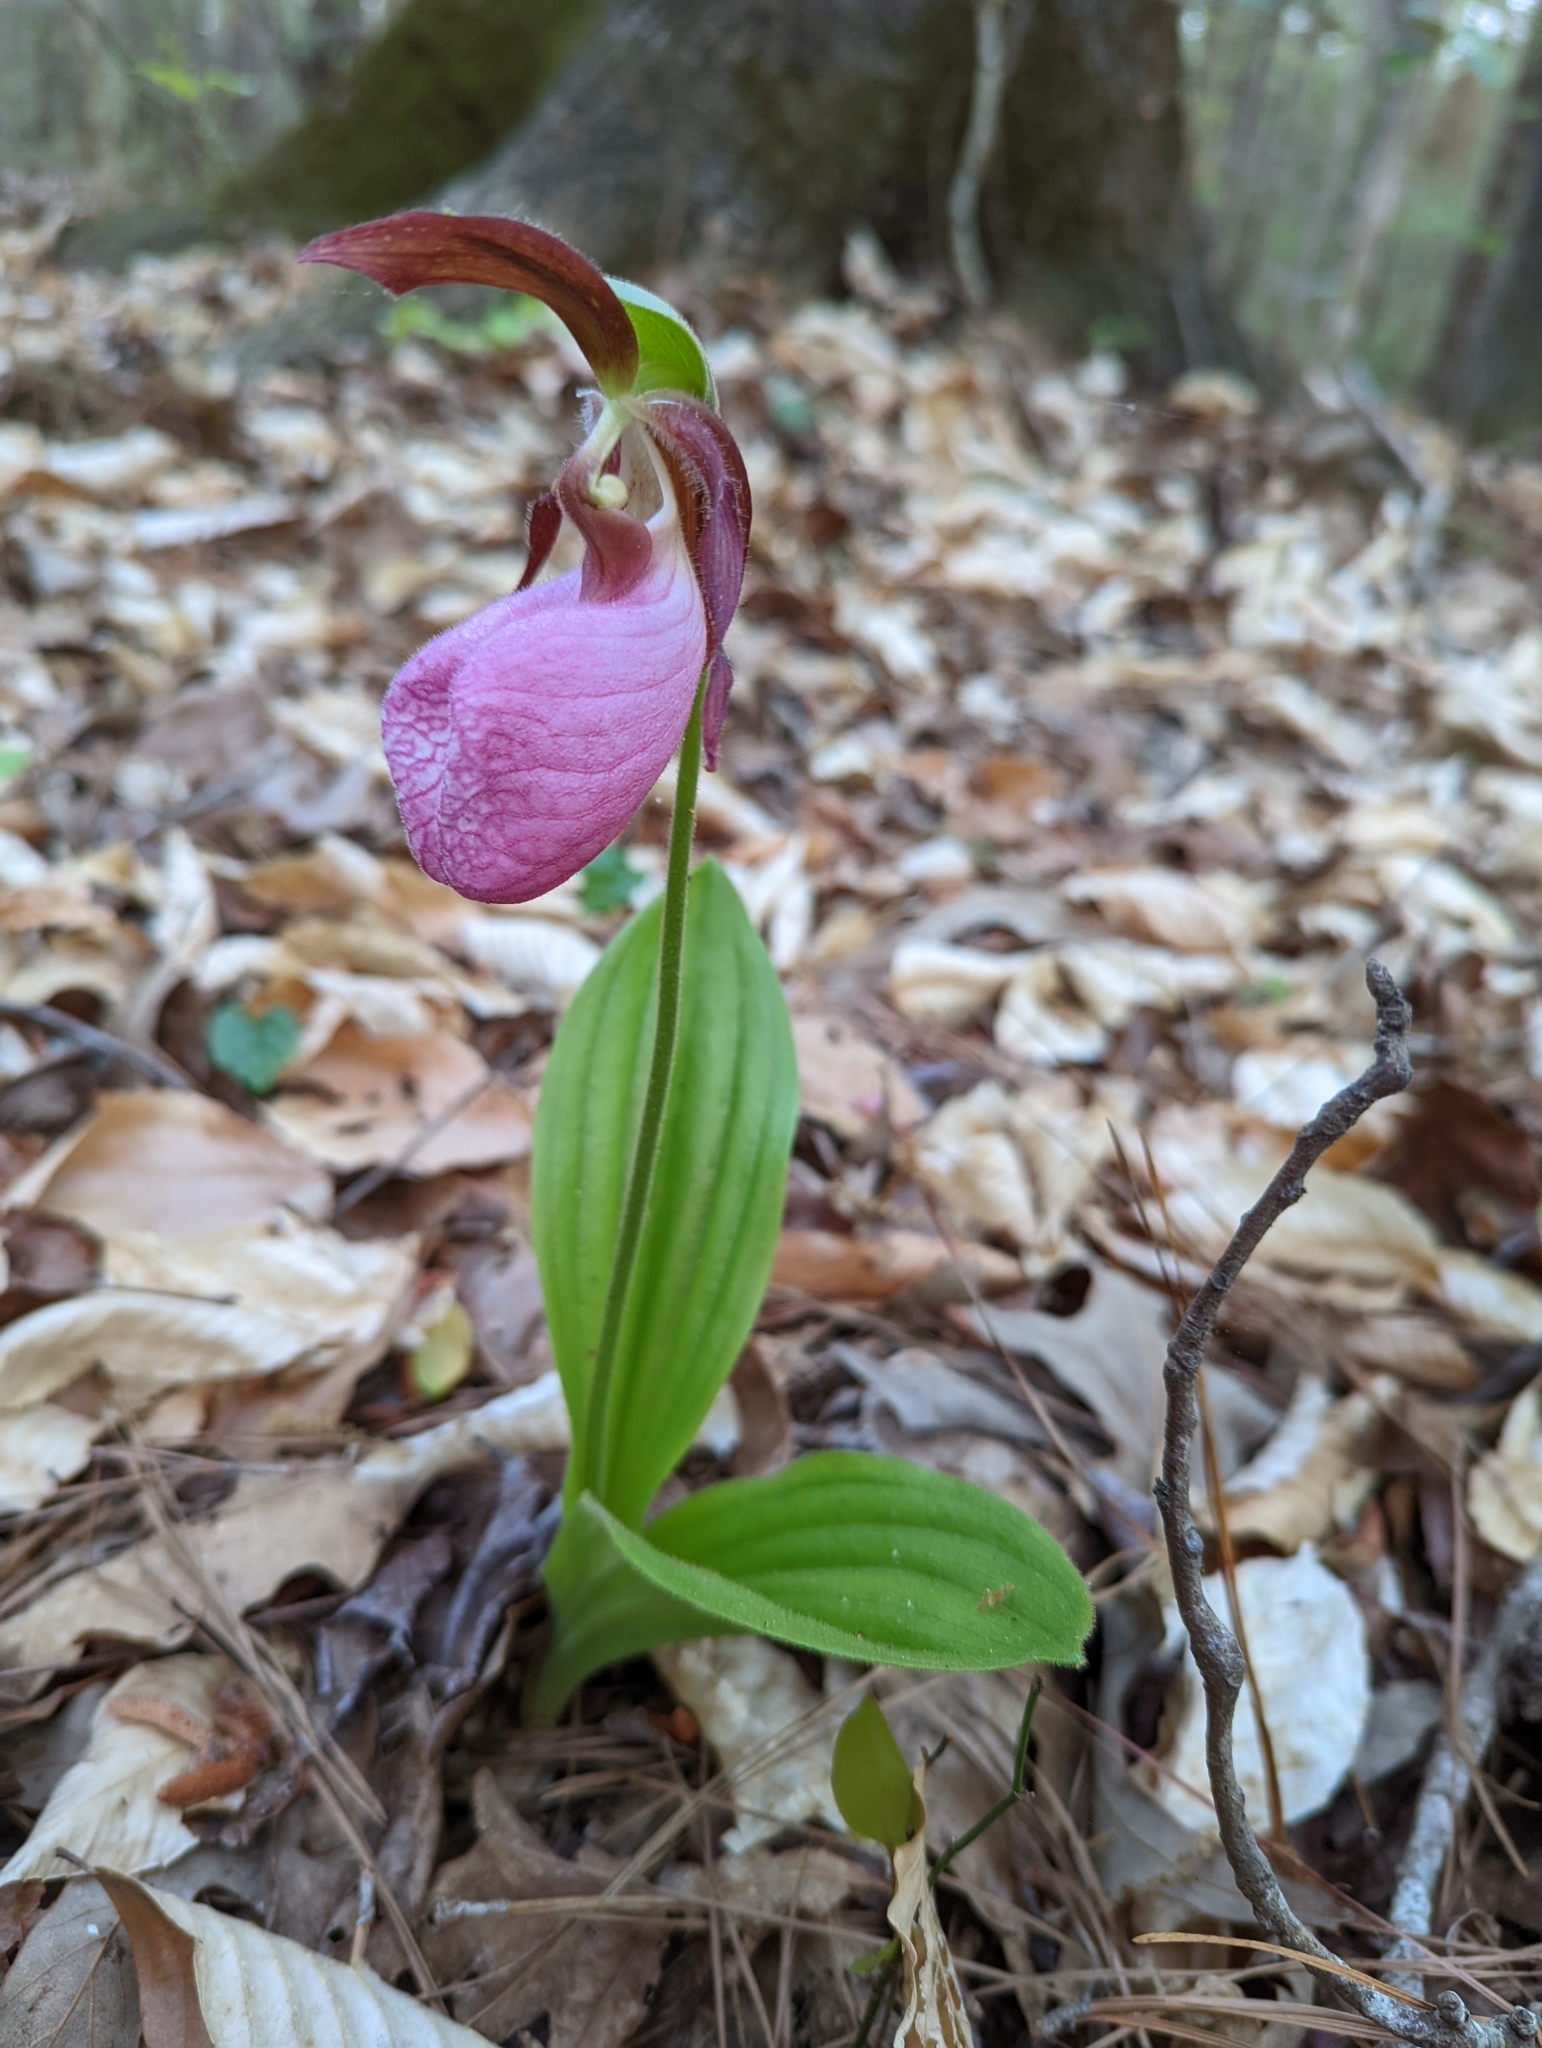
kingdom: Plantae
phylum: Tracheophyta
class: Liliopsida
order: Asparagales
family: Orchidaceae
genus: Cypripedium
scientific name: Cypripedium acaule
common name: Pink lady's-slipper
